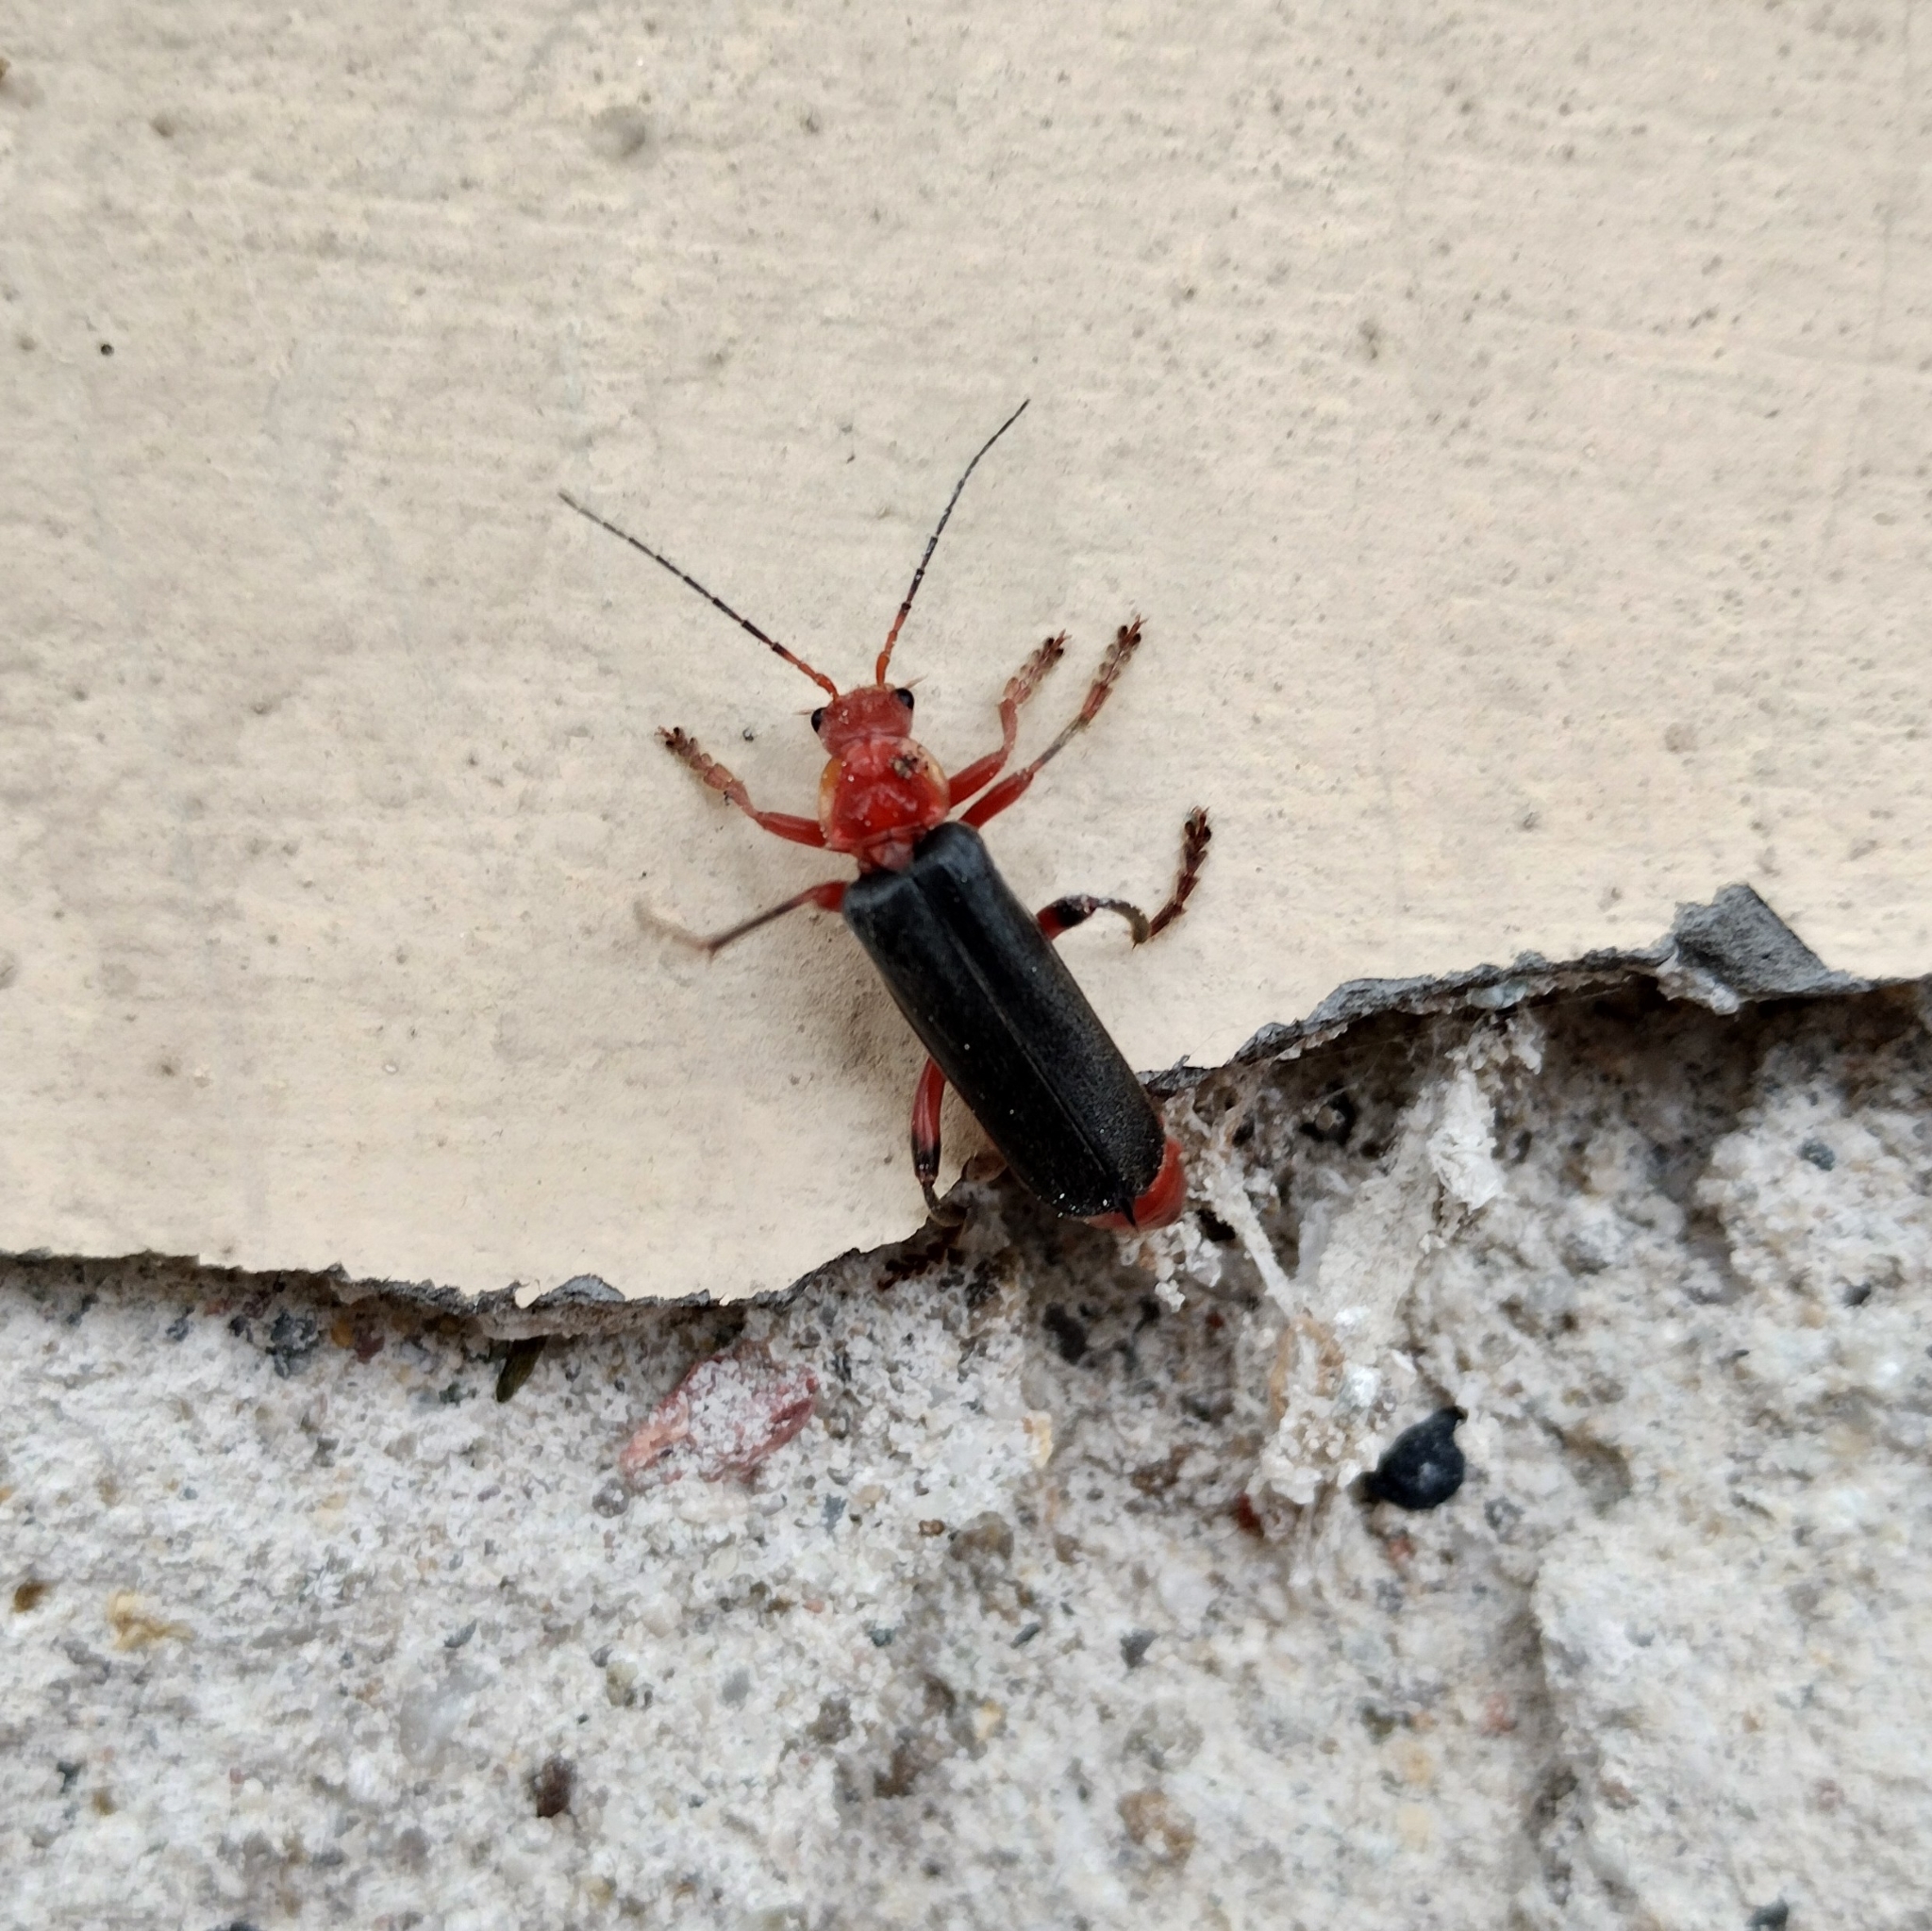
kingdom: Animalia
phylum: Arthropoda
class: Insecta
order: Coleoptera
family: Cantharidae
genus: Cantharis
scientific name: Cantharis livida
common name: Livid soldier beetle
